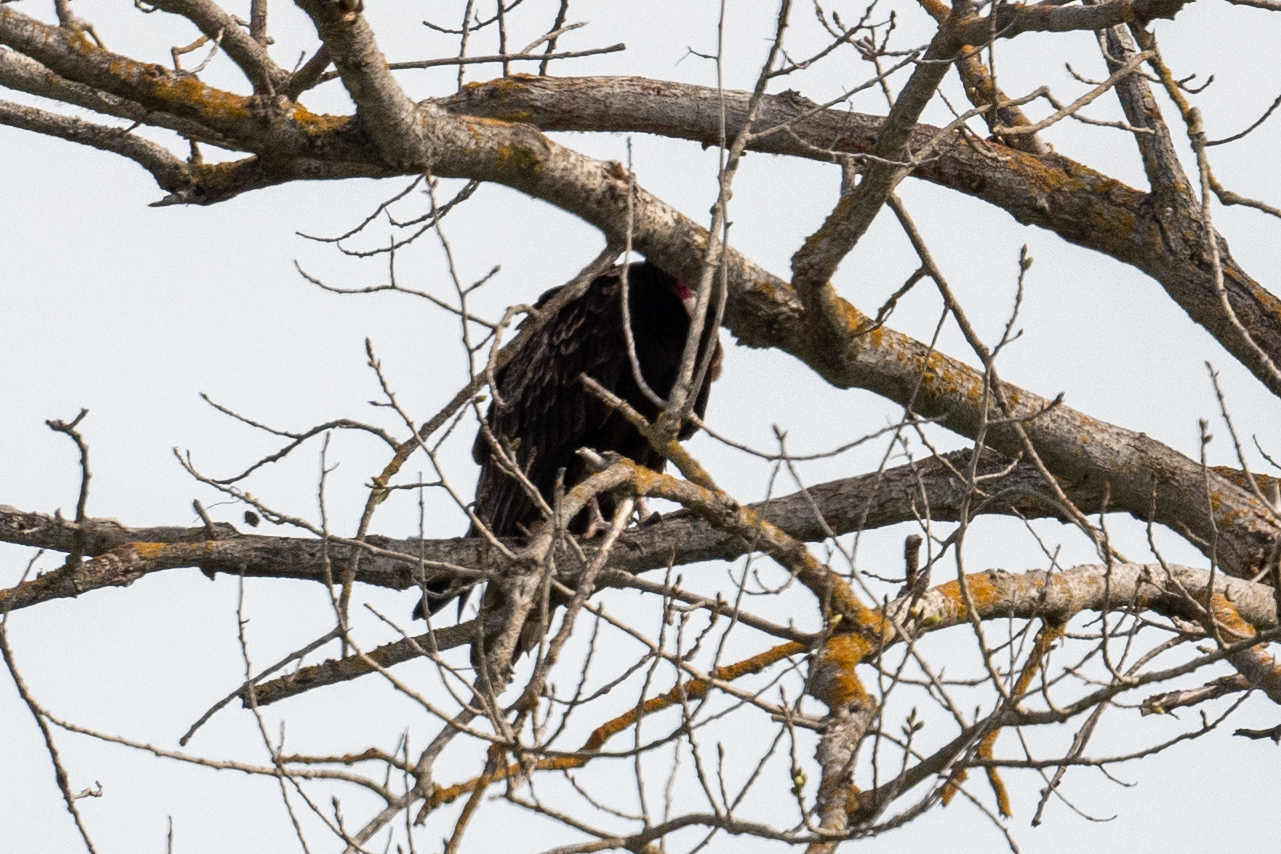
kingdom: Animalia
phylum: Chordata
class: Aves
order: Accipitriformes
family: Cathartidae
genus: Cathartes
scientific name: Cathartes aura
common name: Turkey vulture
